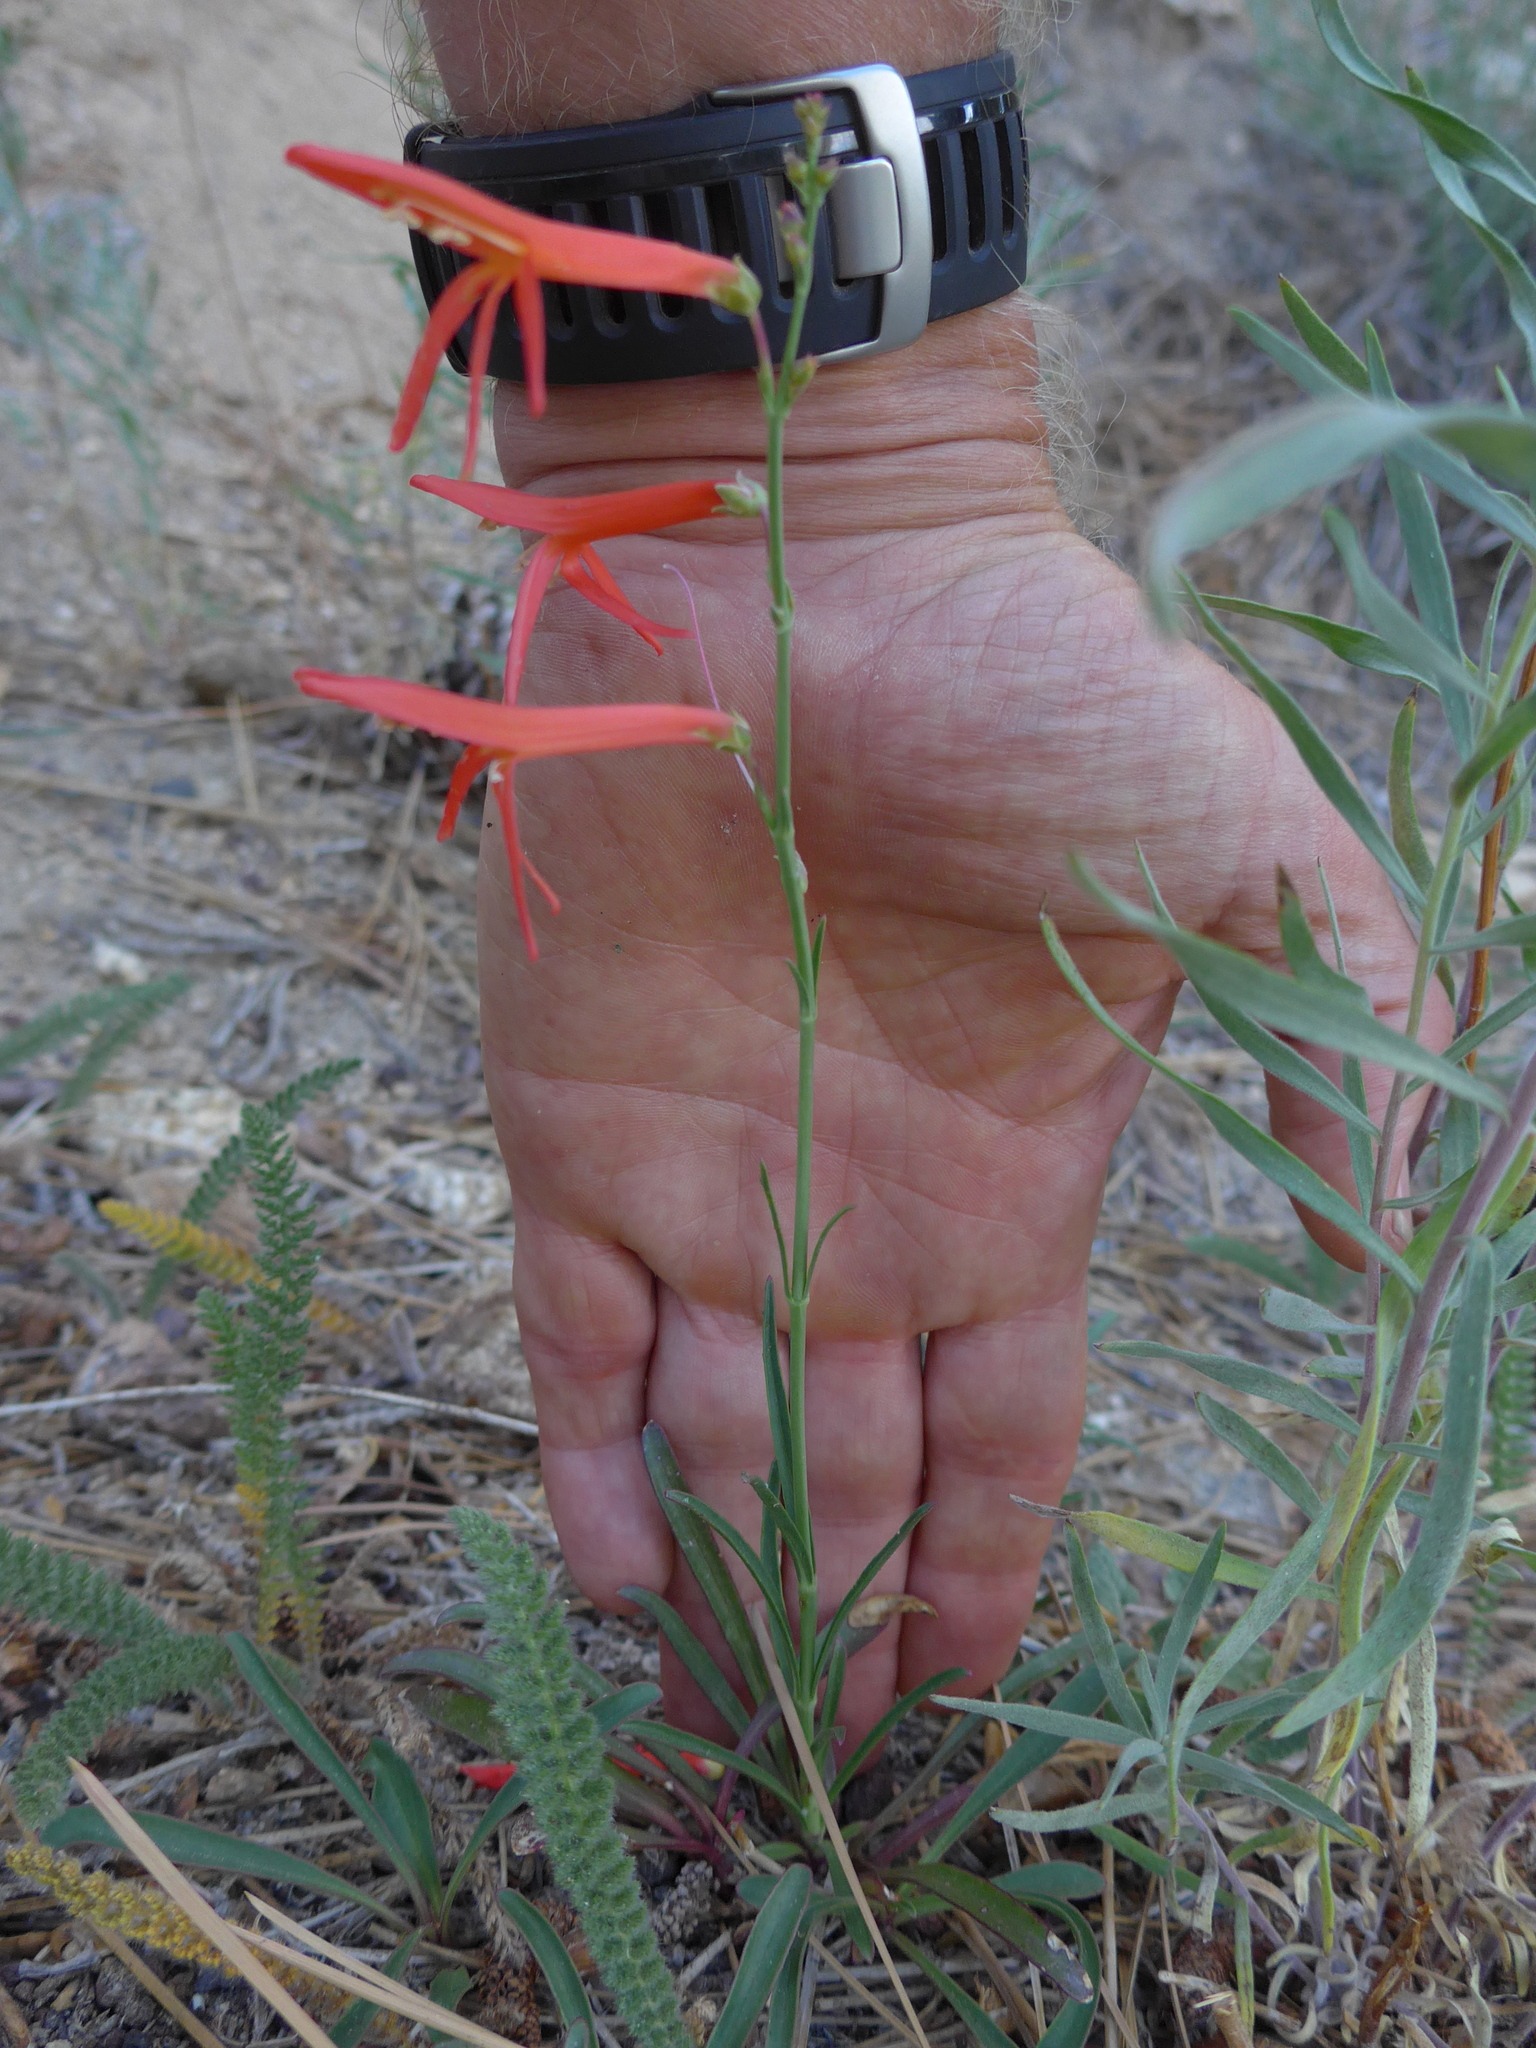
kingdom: Plantae
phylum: Tracheophyta
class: Magnoliopsida
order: Lamiales
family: Plantaginaceae
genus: Penstemon
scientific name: Penstemon labrosus
